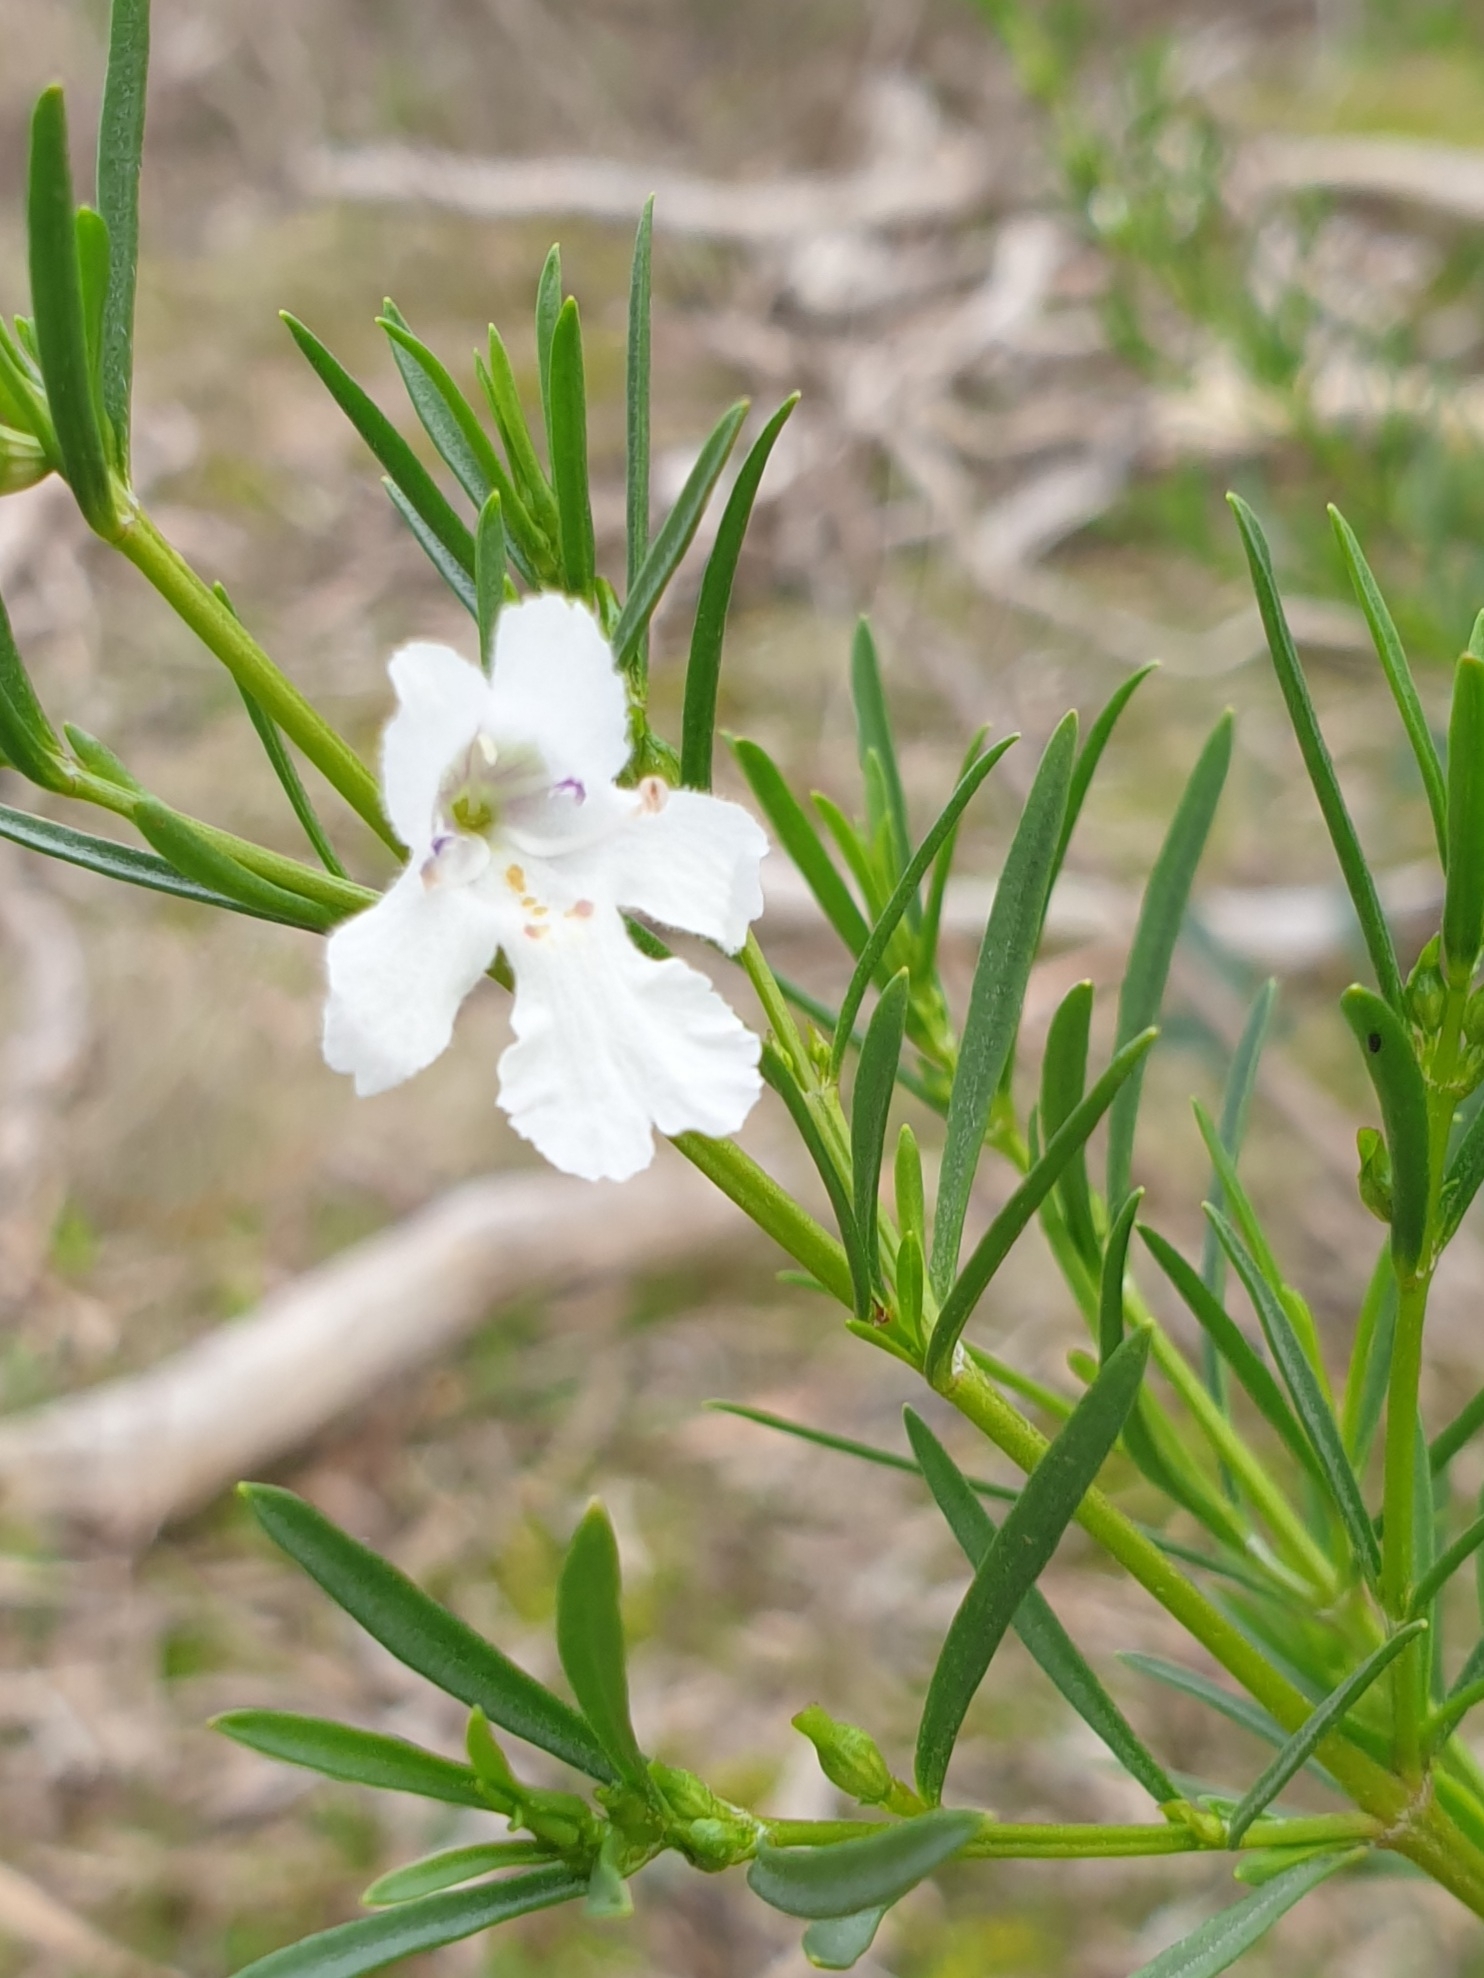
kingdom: Plantae
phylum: Tracheophyta
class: Magnoliopsida
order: Lamiales
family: Lamiaceae
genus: Prostanthera
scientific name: Prostanthera nivea
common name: Snowy mintbush
